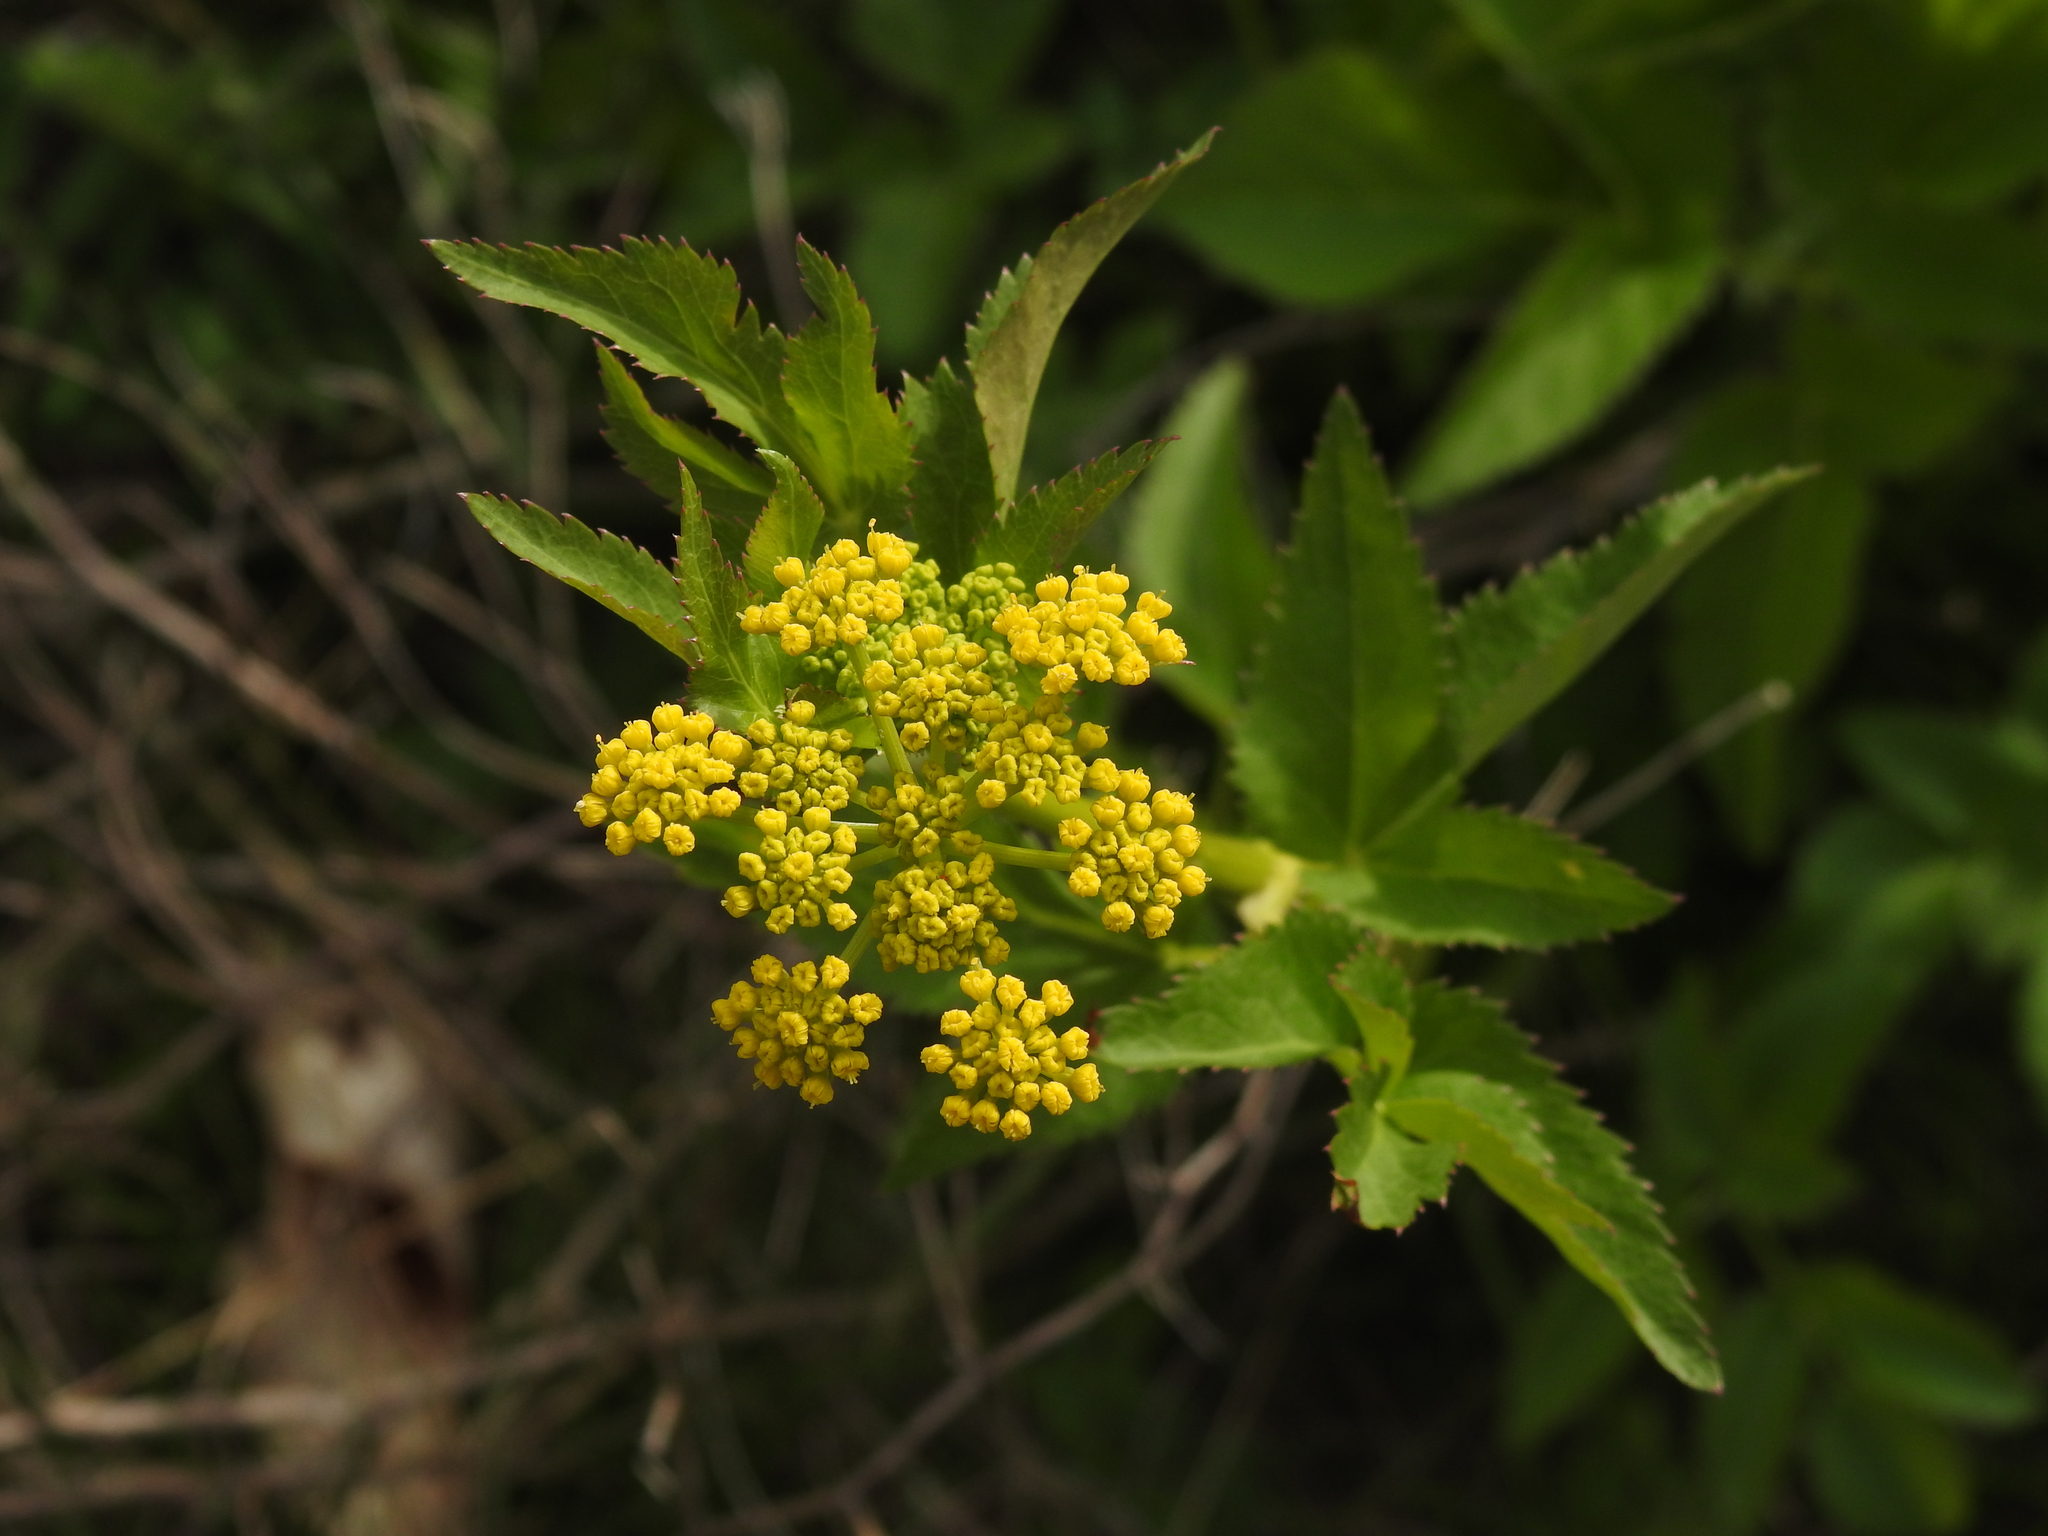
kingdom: Plantae
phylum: Tracheophyta
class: Magnoliopsida
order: Apiales
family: Apiaceae
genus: Zizia
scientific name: Zizia aurea
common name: Golden alexanders
